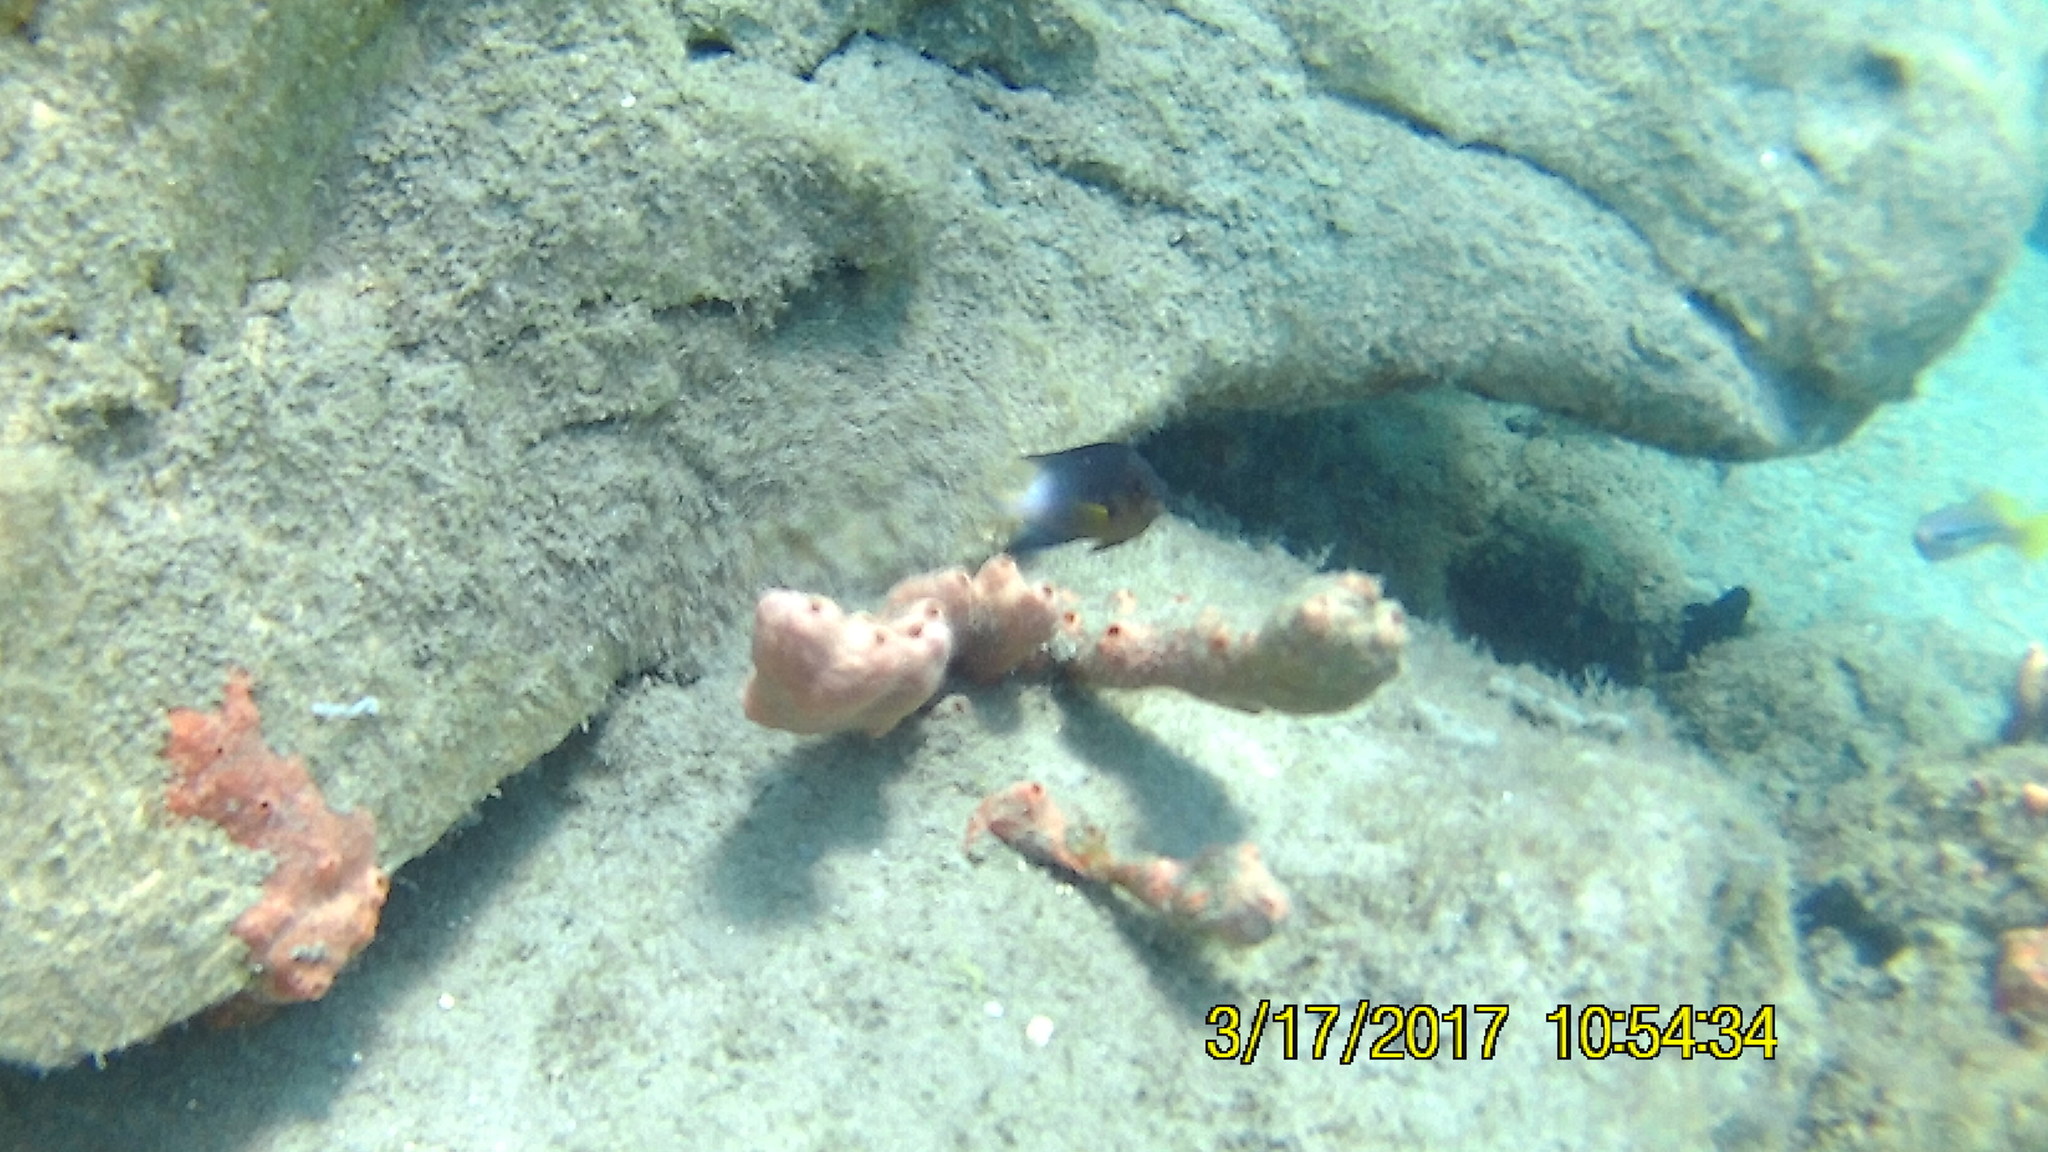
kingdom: Animalia
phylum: Chordata
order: Perciformes
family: Pomacentridae
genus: Stegastes
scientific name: Stegastes partitus
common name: Bicolor damselfish
